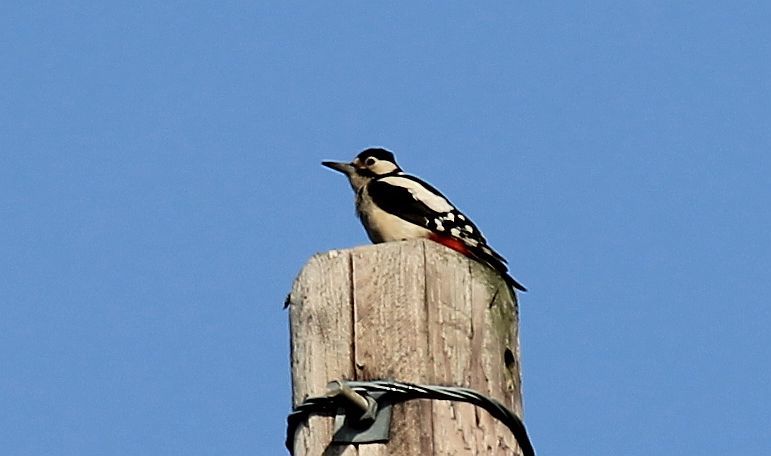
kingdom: Animalia
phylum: Chordata
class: Aves
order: Piciformes
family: Picidae
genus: Dendrocopos
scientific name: Dendrocopos major
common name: Great spotted woodpecker
